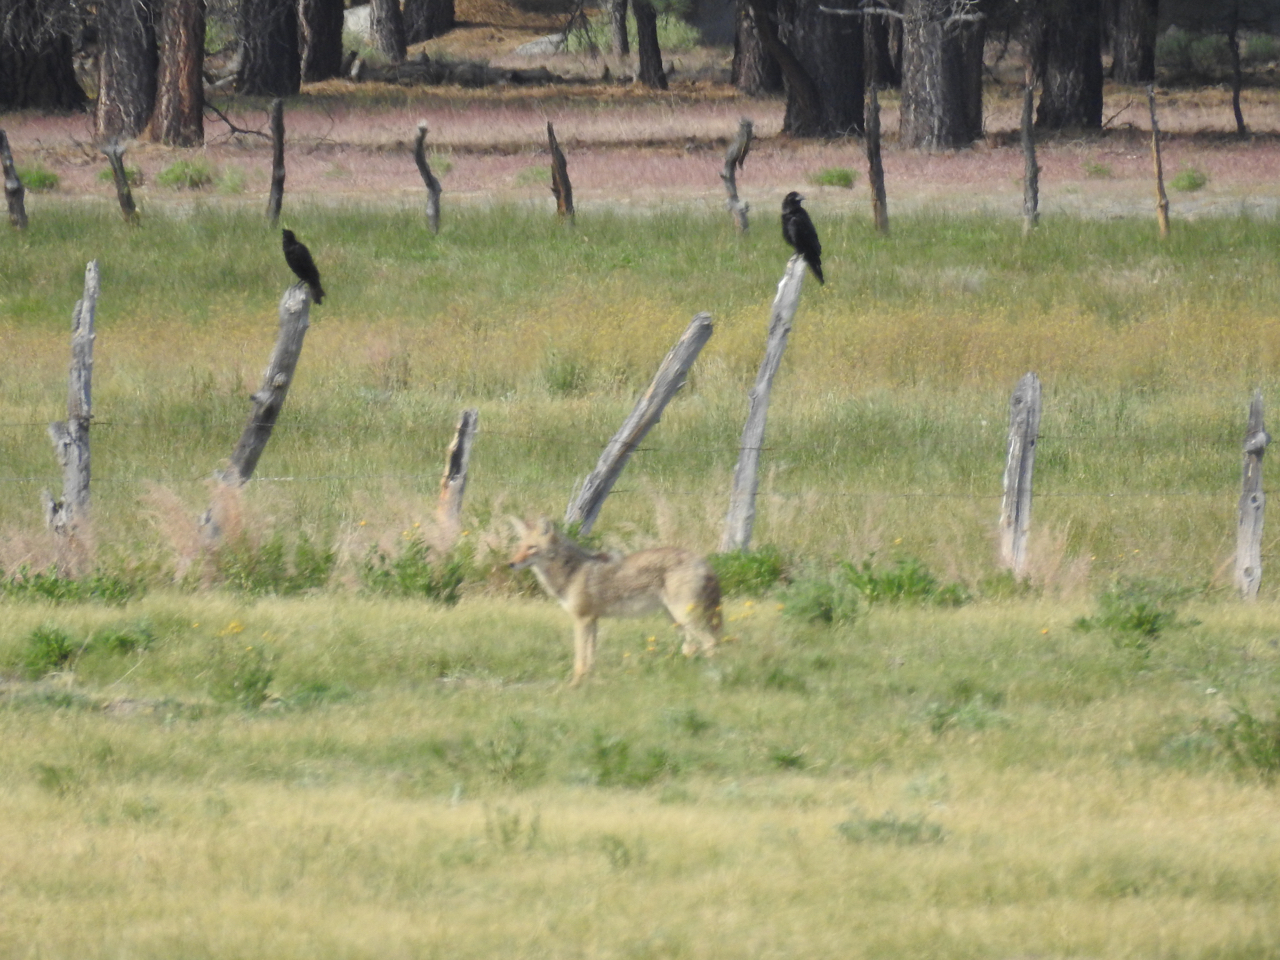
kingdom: Animalia
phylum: Chordata
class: Aves
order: Passeriformes
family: Corvidae
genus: Corvus
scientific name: Corvus corax
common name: Common raven
